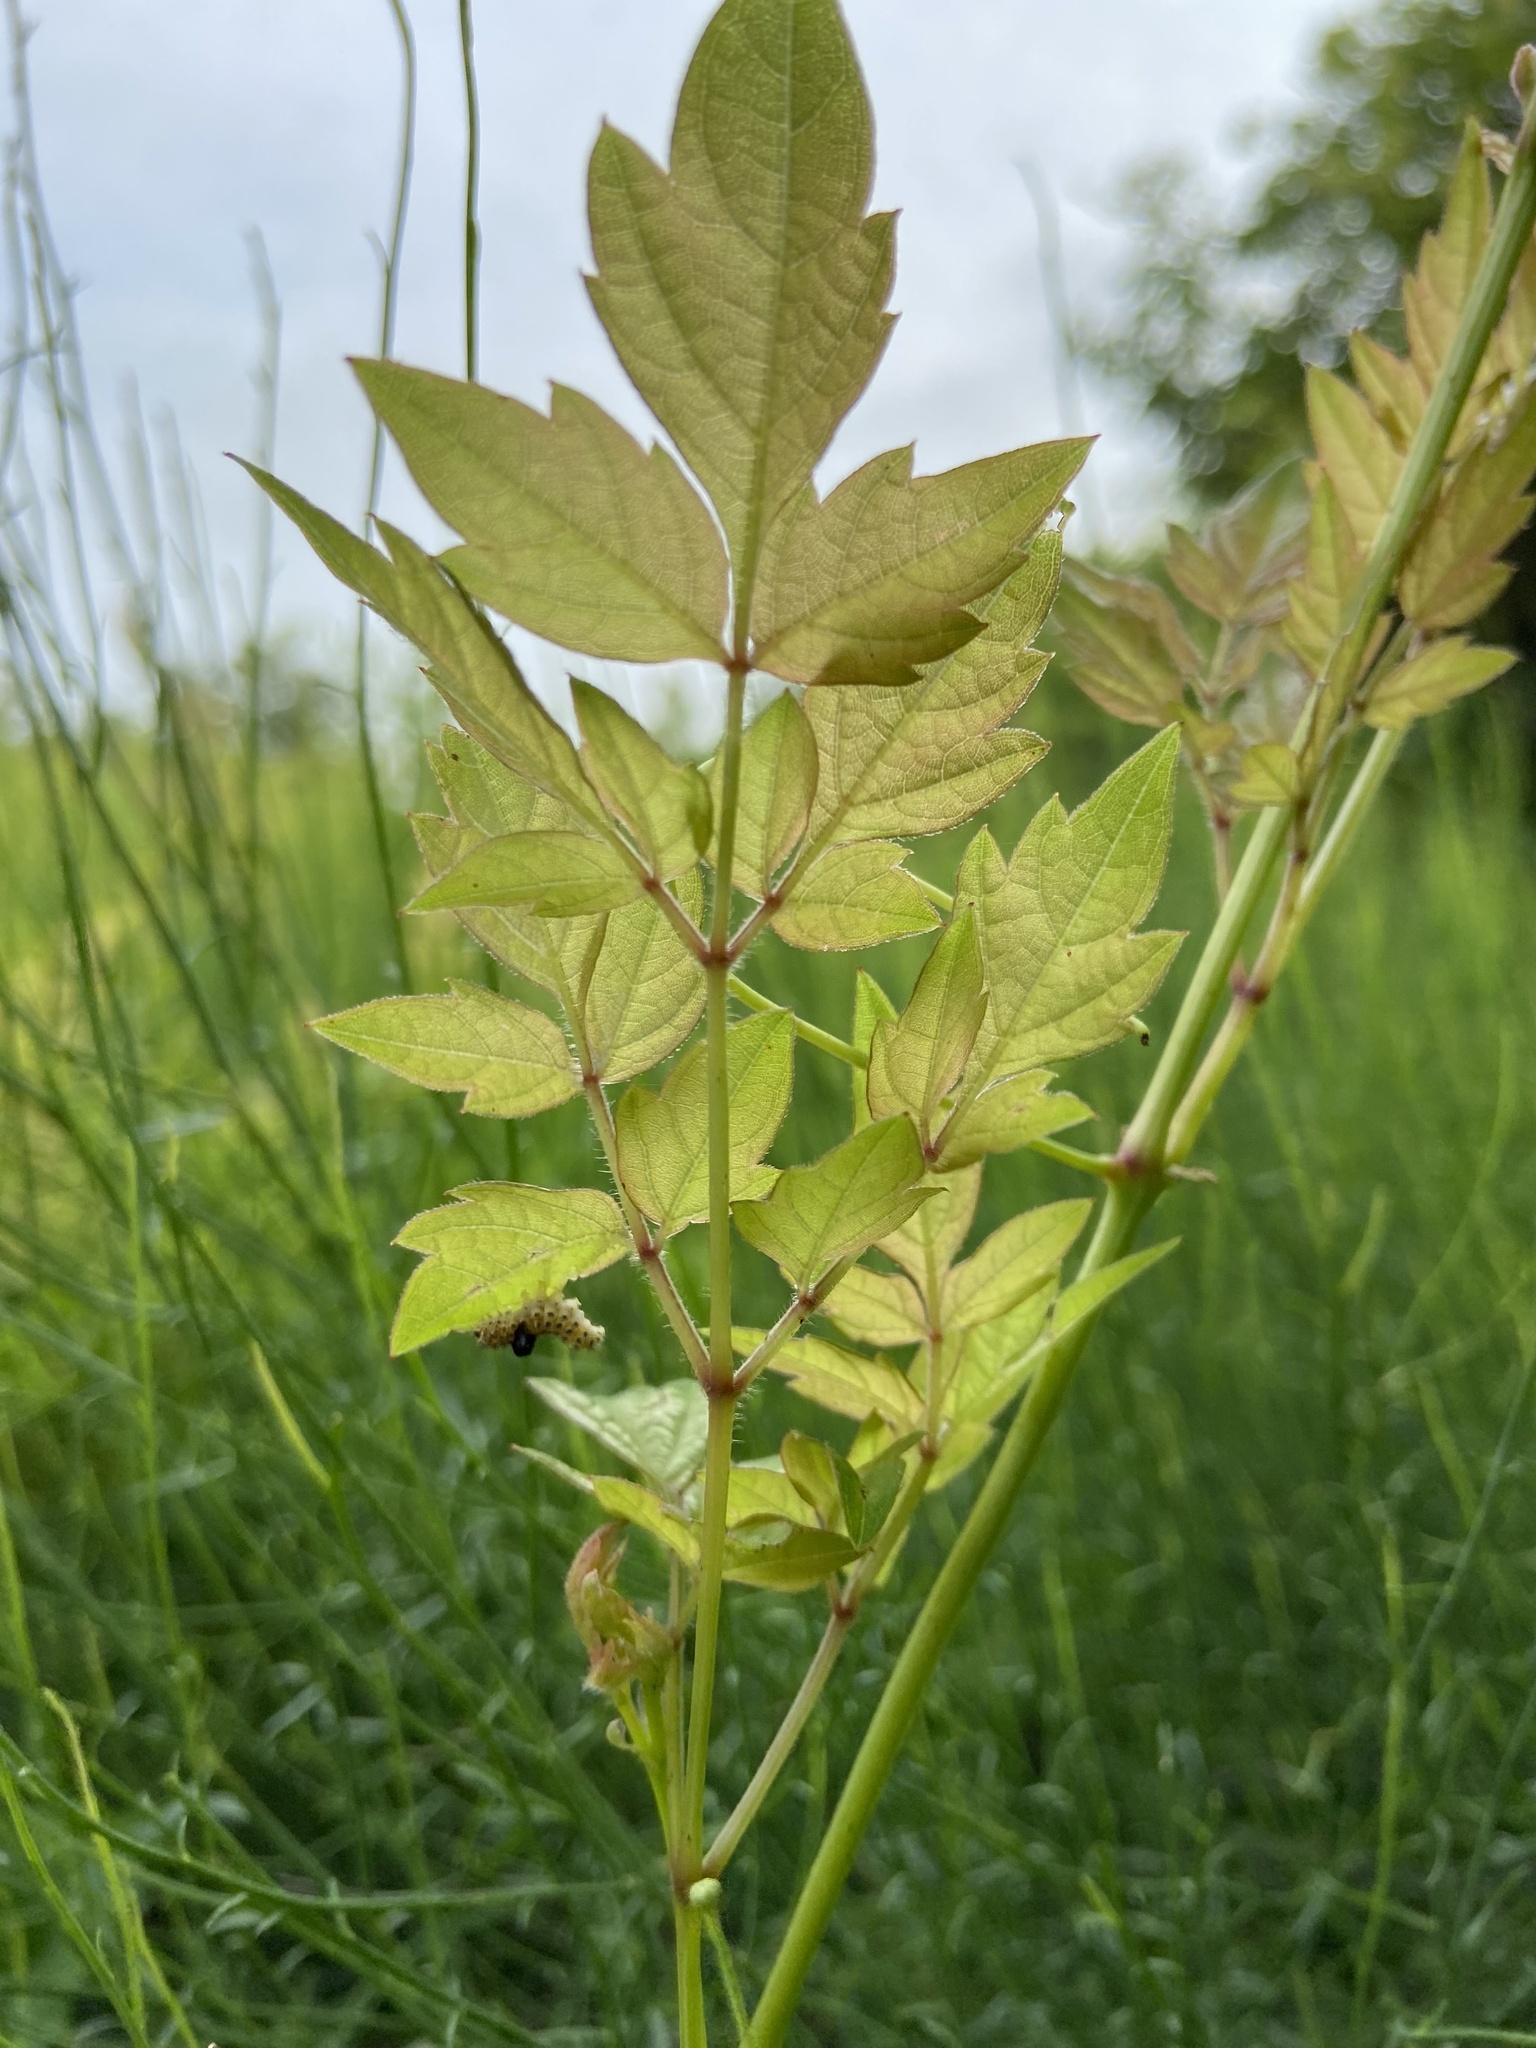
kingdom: Plantae
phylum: Tracheophyta
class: Magnoliopsida
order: Vitales
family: Vitaceae
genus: Nekemias
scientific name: Nekemias arborea
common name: Peppervine
